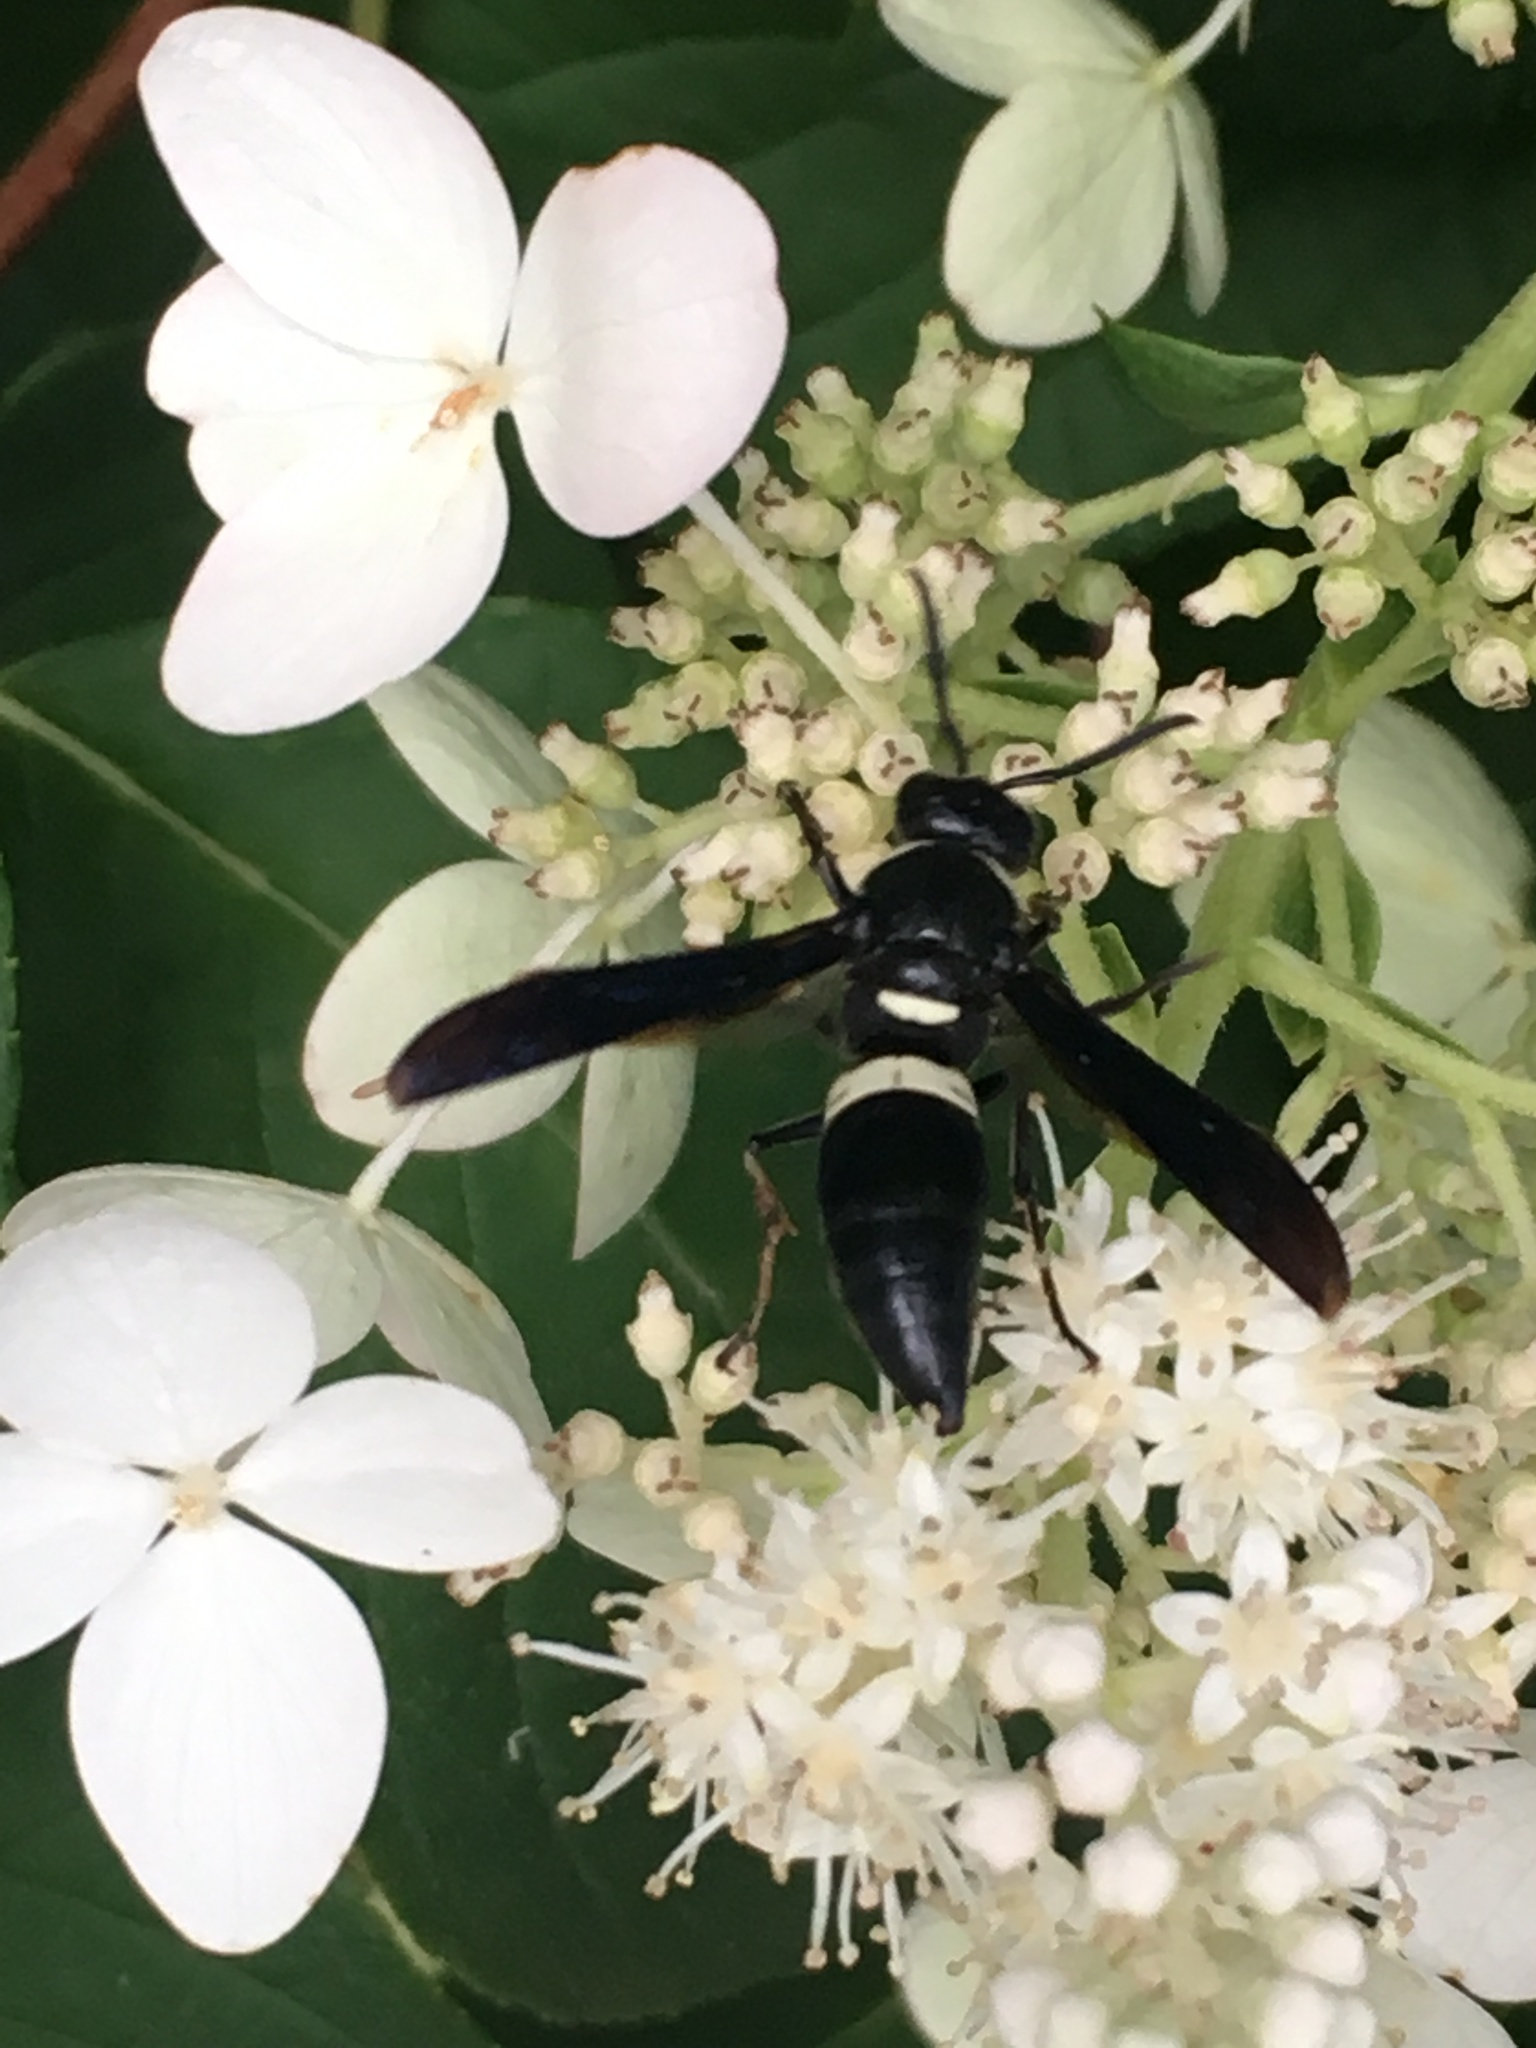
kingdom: Animalia
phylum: Arthropoda
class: Insecta
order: Hymenoptera
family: Eumenidae
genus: Monobia
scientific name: Monobia quadridens
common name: Four-toothed mason wasp
